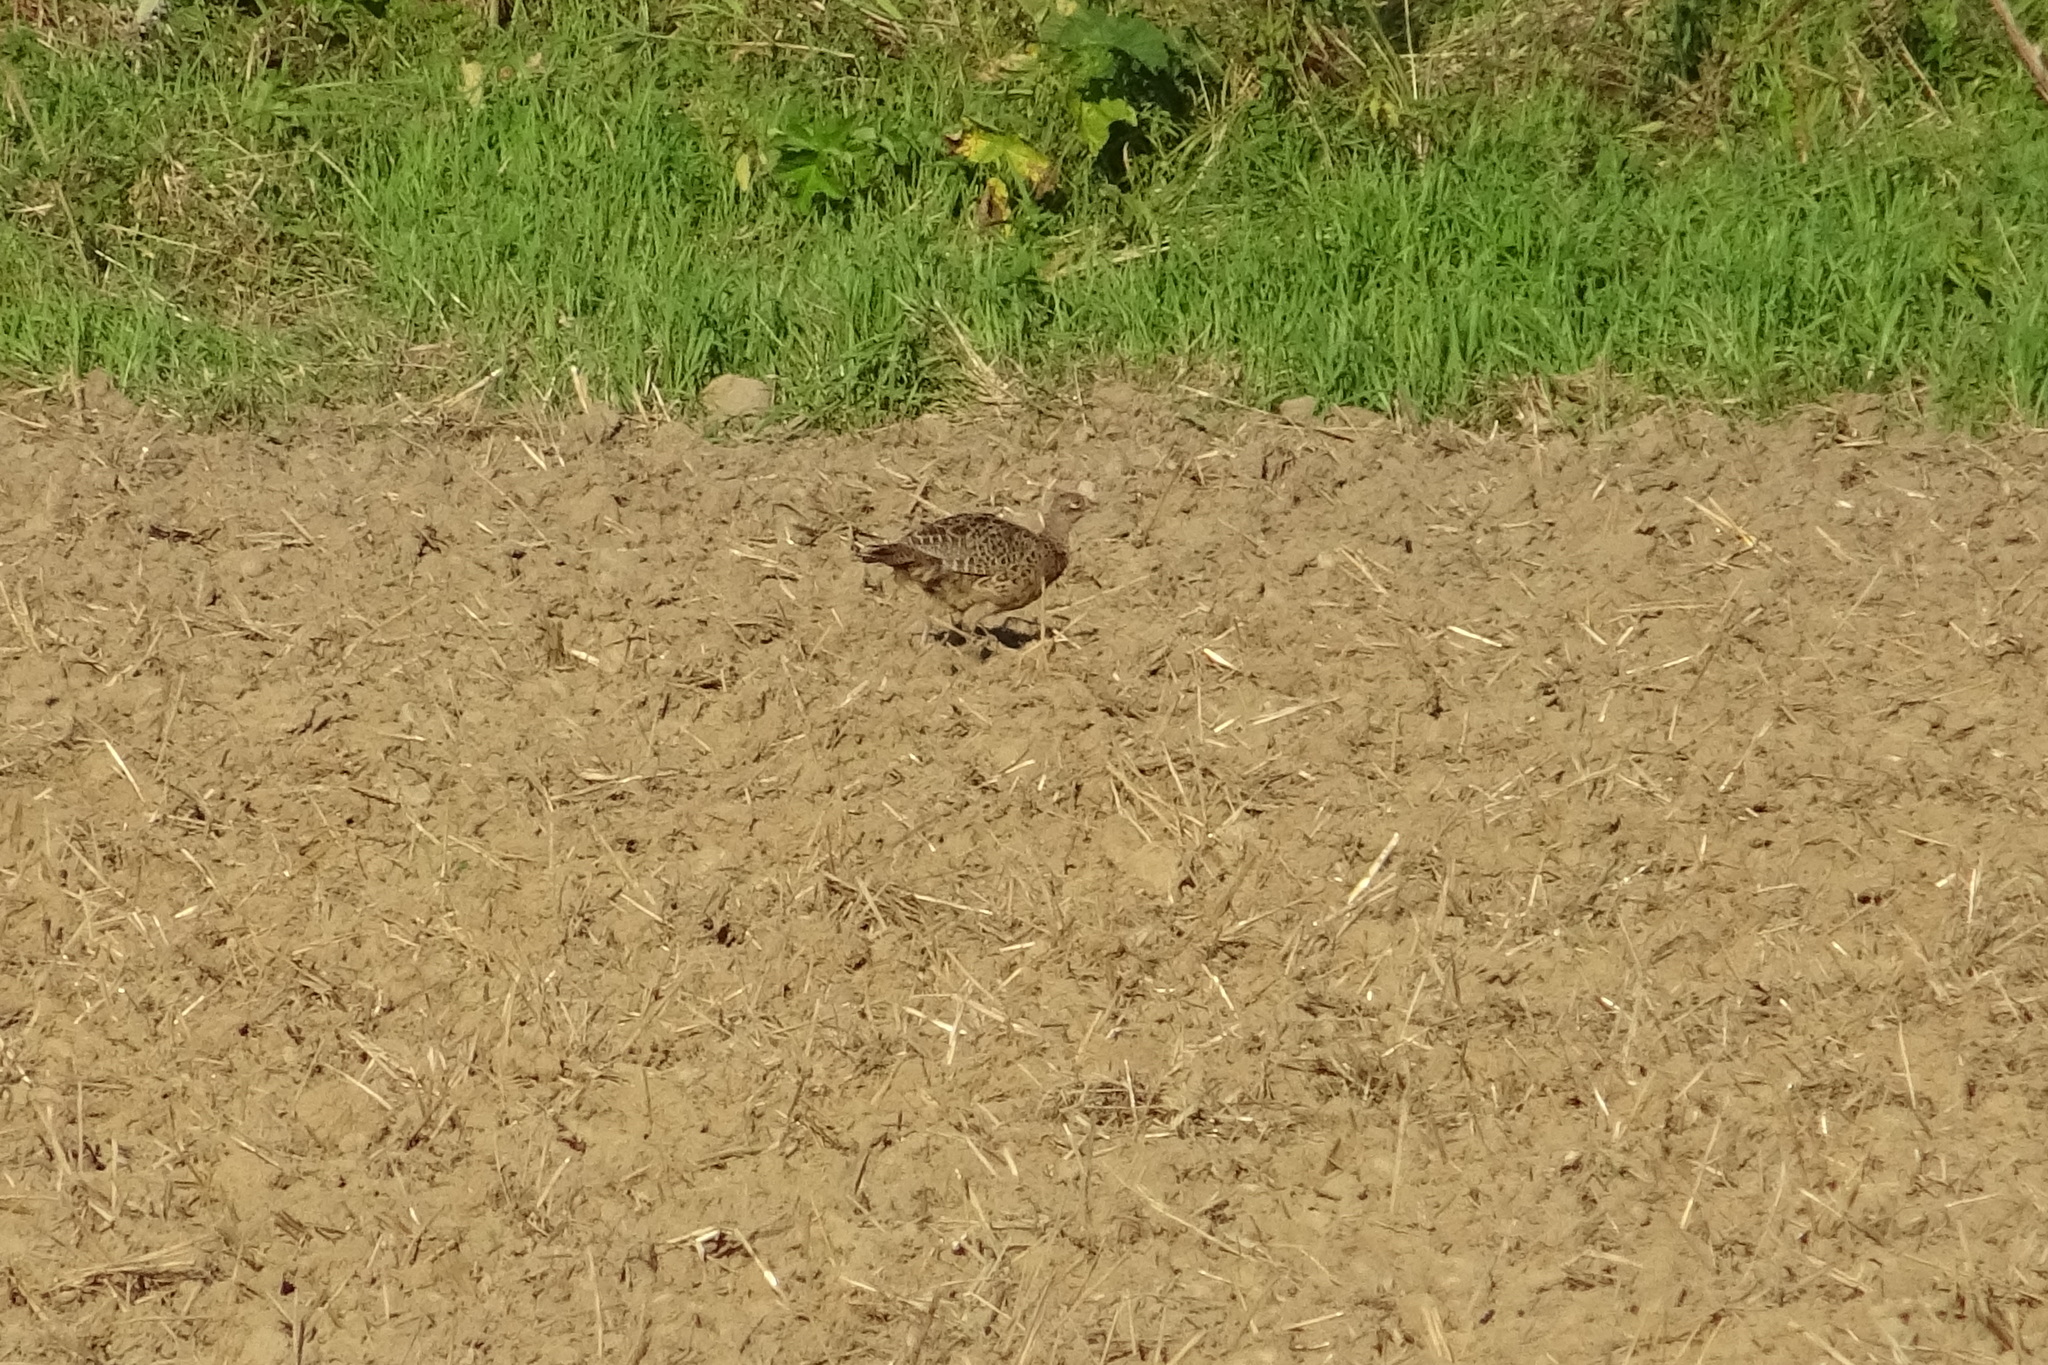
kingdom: Animalia
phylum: Chordata
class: Aves
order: Galliformes
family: Phasianidae
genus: Phasianus
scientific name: Phasianus colchicus
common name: Common pheasant
